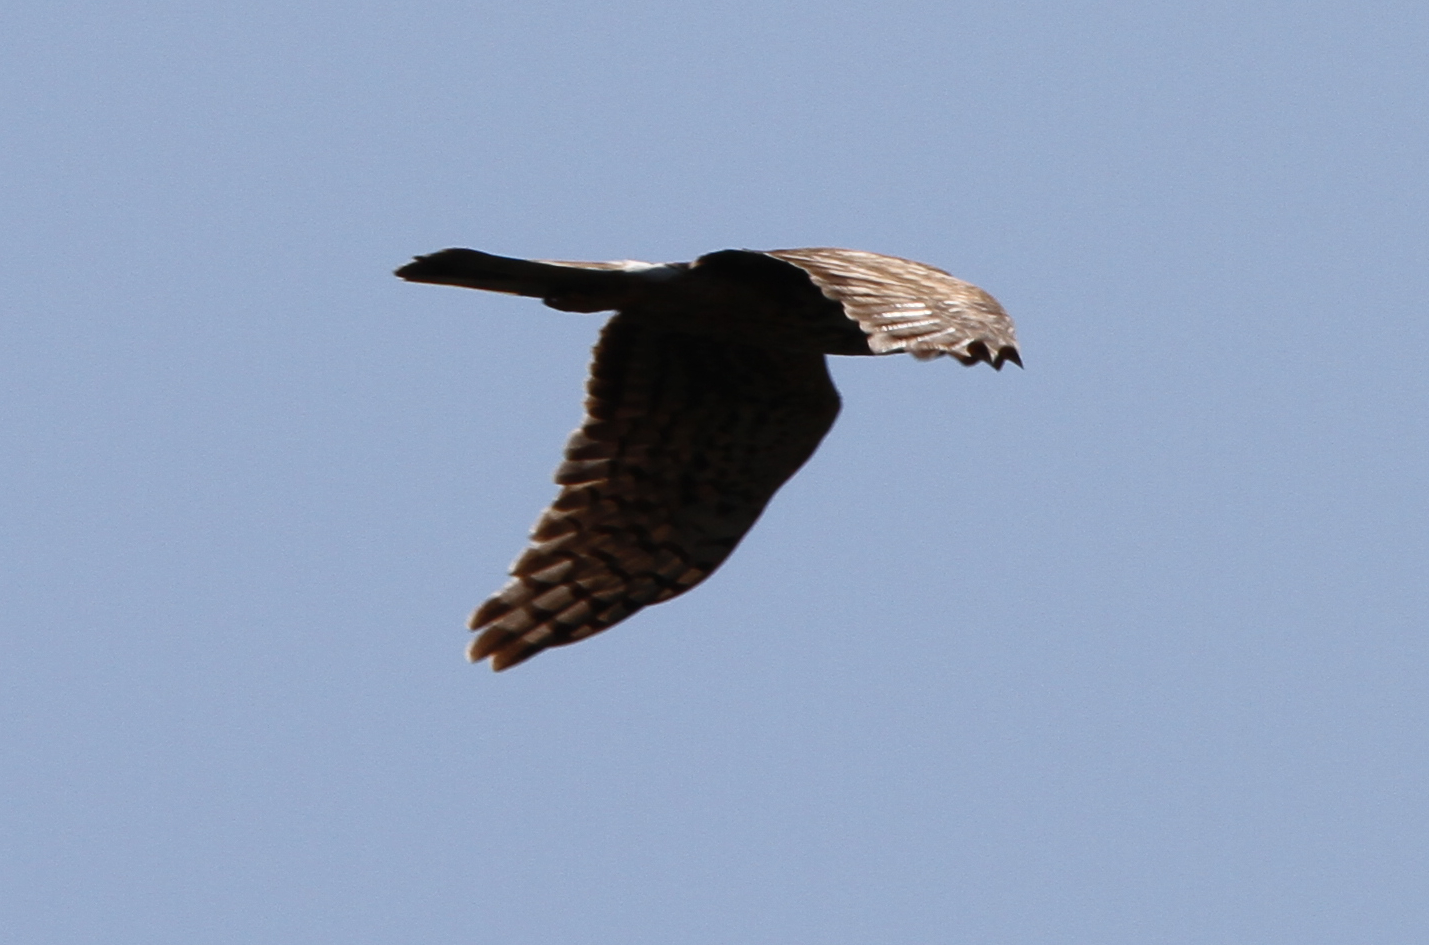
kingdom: Animalia
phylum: Chordata
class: Aves
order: Accipitriformes
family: Accipitridae
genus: Circus
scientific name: Circus cyaneus
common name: Hen harrier
